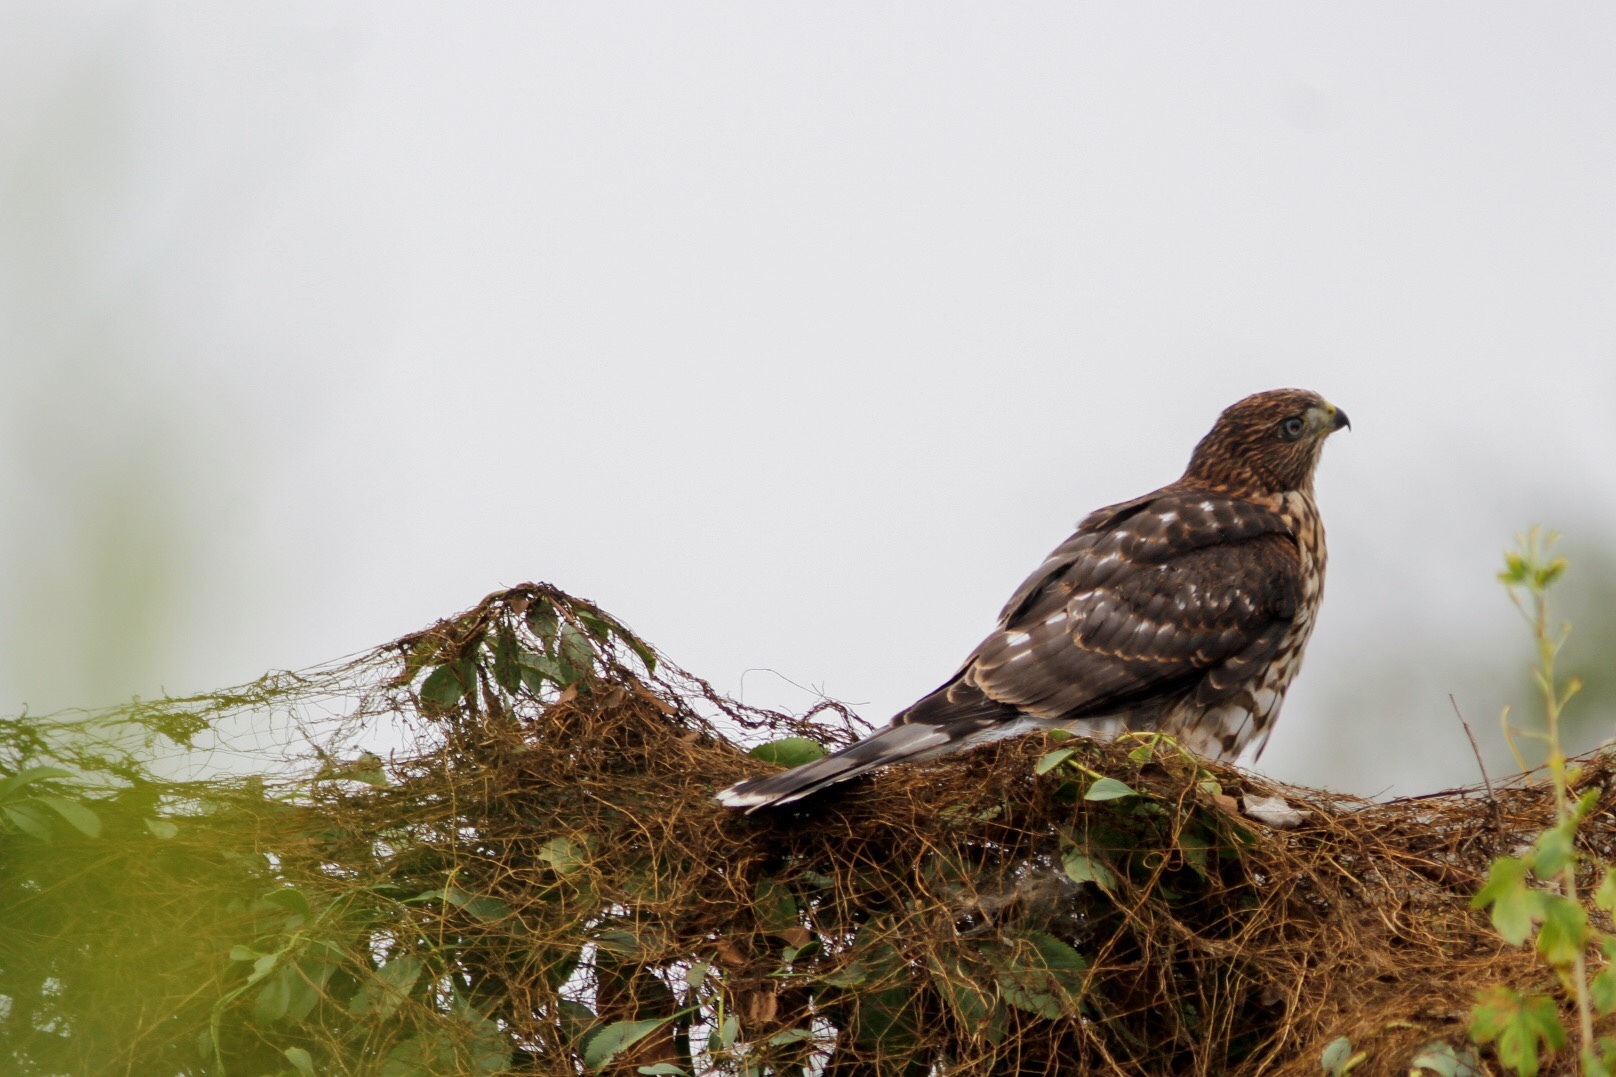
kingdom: Animalia
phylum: Chordata
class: Aves
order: Accipitriformes
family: Accipitridae
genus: Accipiter
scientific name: Accipiter cooperii
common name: Cooper's hawk
